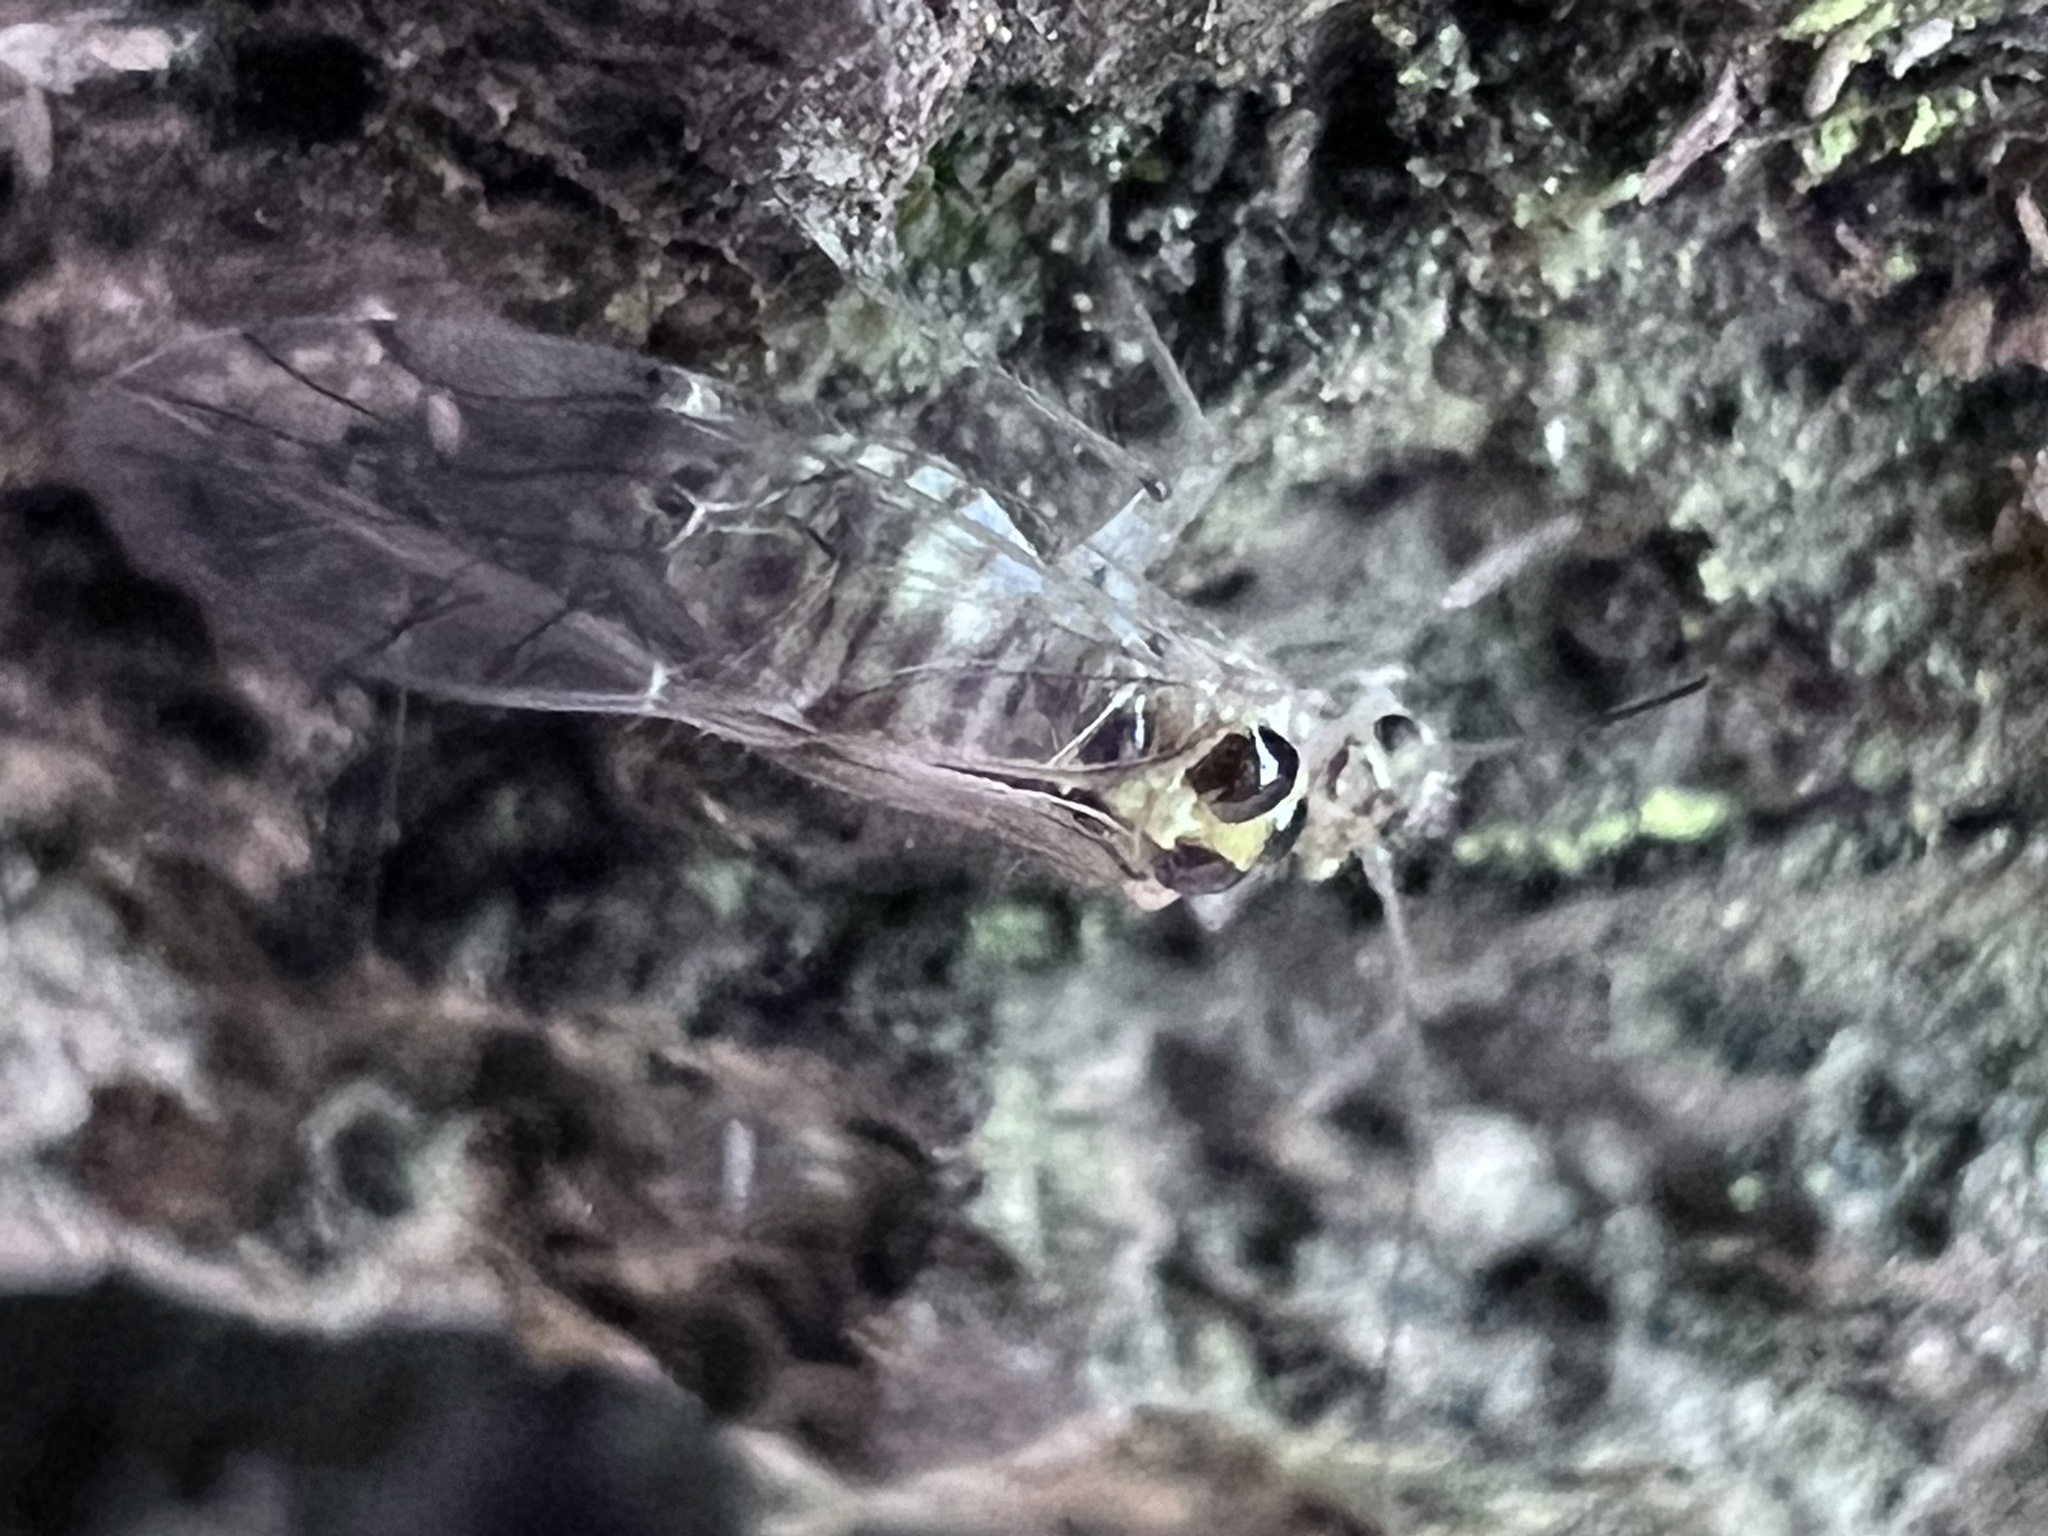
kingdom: Animalia
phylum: Arthropoda
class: Insecta
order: Psocodea
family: Dasydemellidae
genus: Teliapsocus
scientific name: Teliapsocus conterminus
